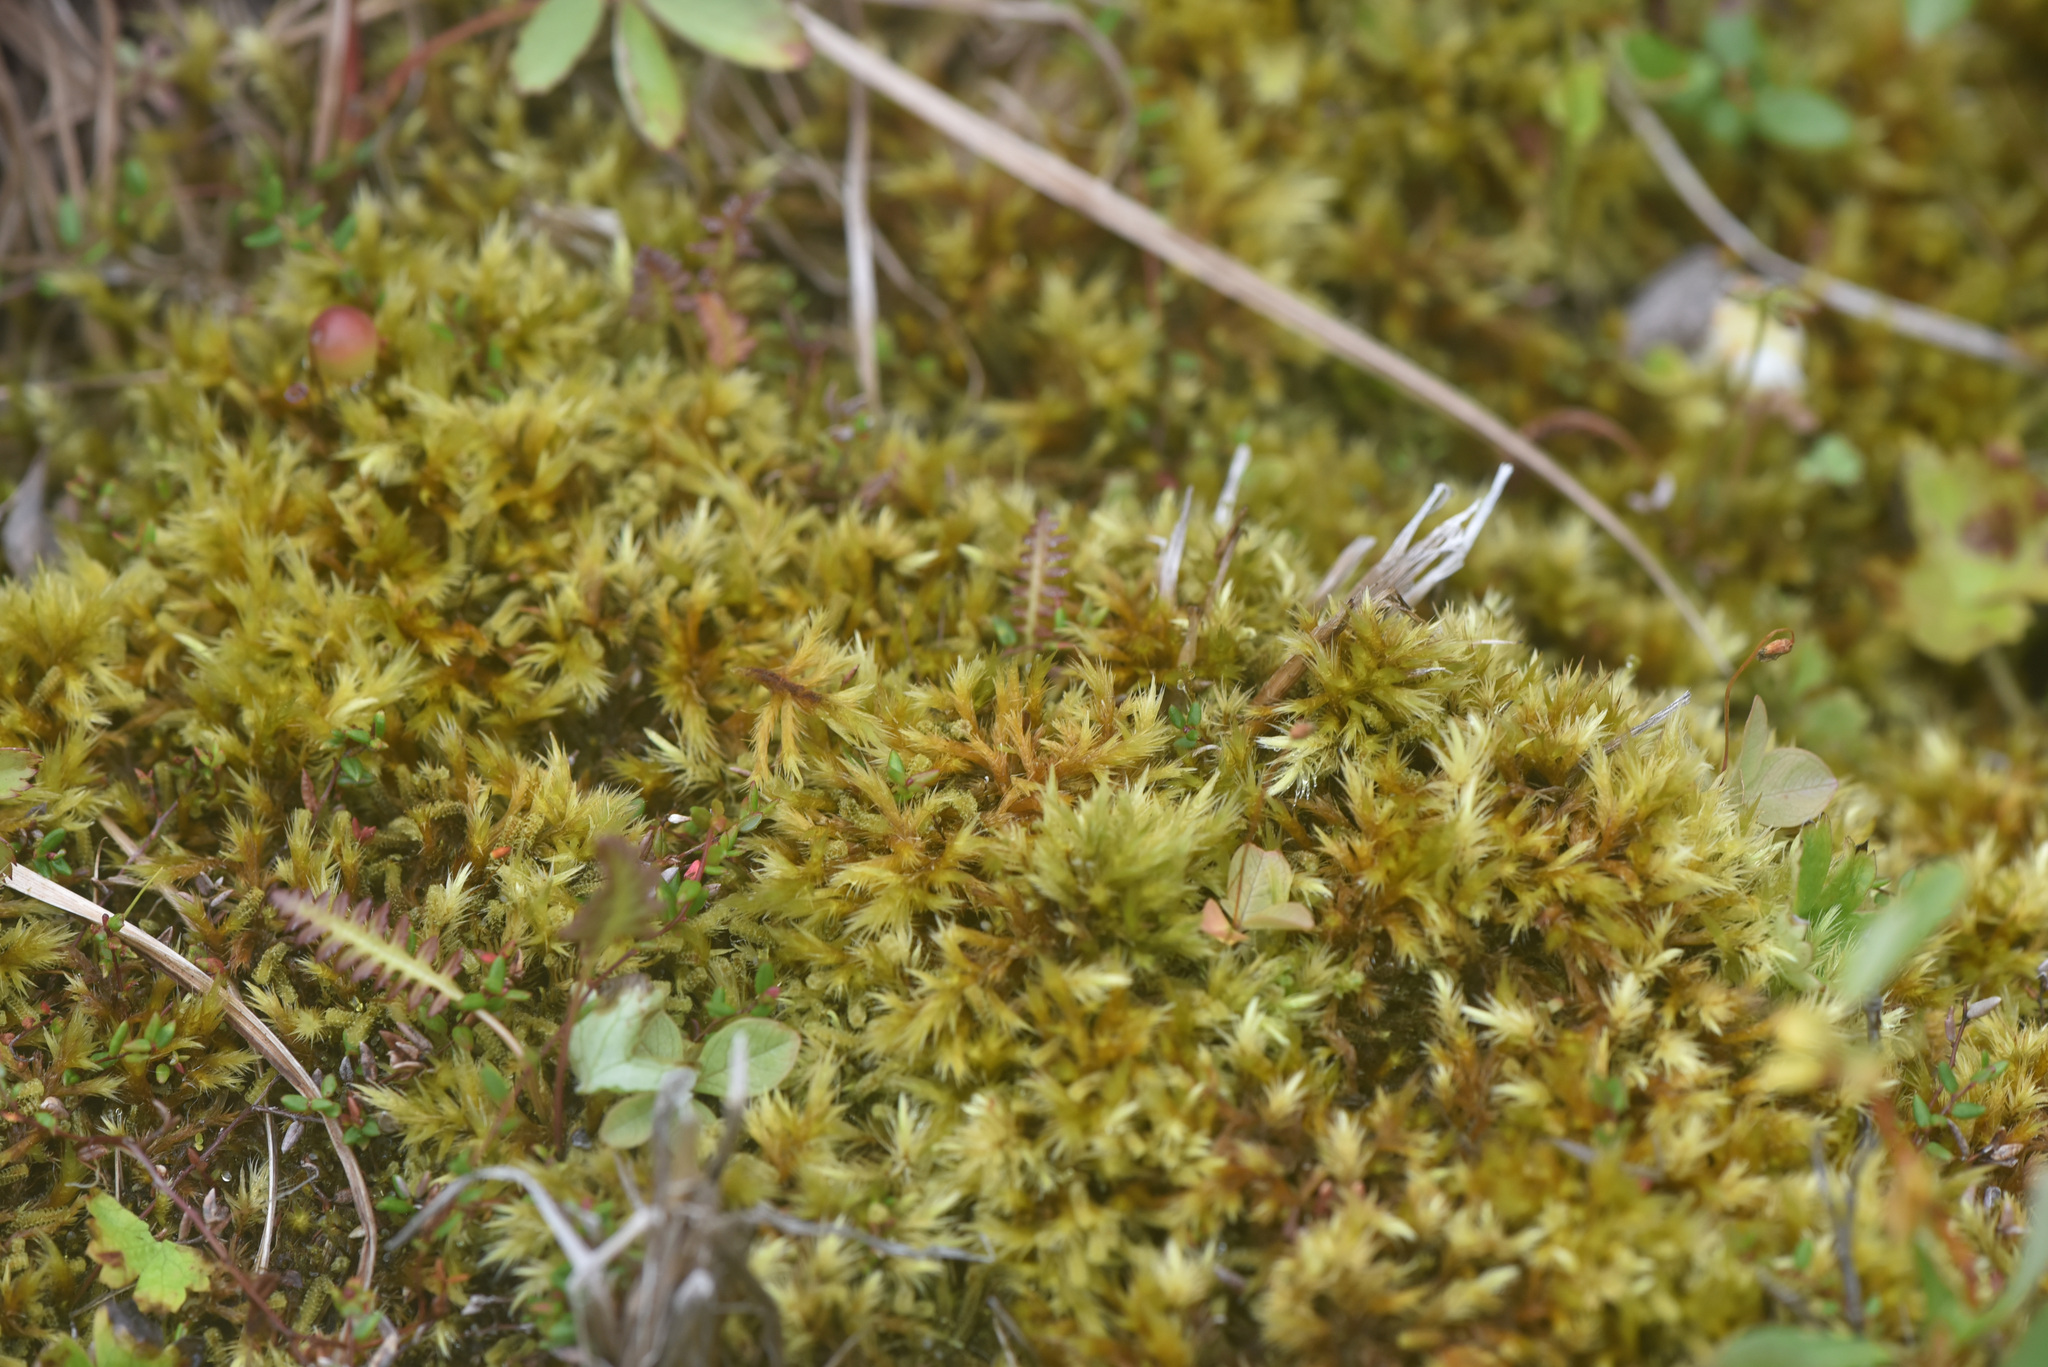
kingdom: Plantae
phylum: Bryophyta
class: Bryopsida
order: Hypnales
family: Amblystegiaceae
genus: Tomentypnum
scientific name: Tomentypnum nitens
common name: Golden fuzzy fen moss
